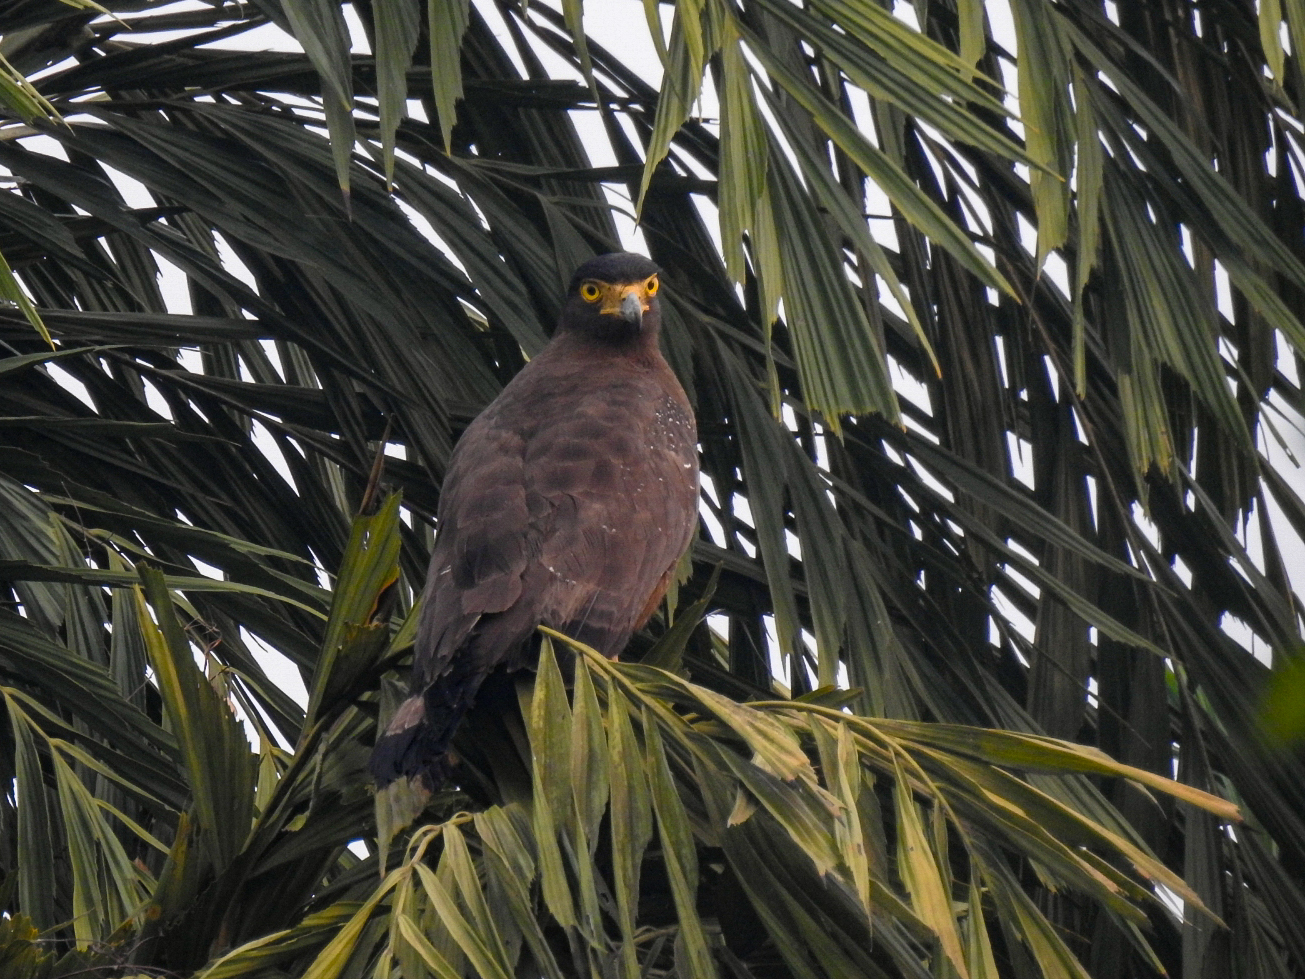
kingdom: Animalia
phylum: Chordata
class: Aves
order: Accipitriformes
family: Accipitridae
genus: Spilornis
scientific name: Spilornis cheela
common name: Crested serpent eagle
